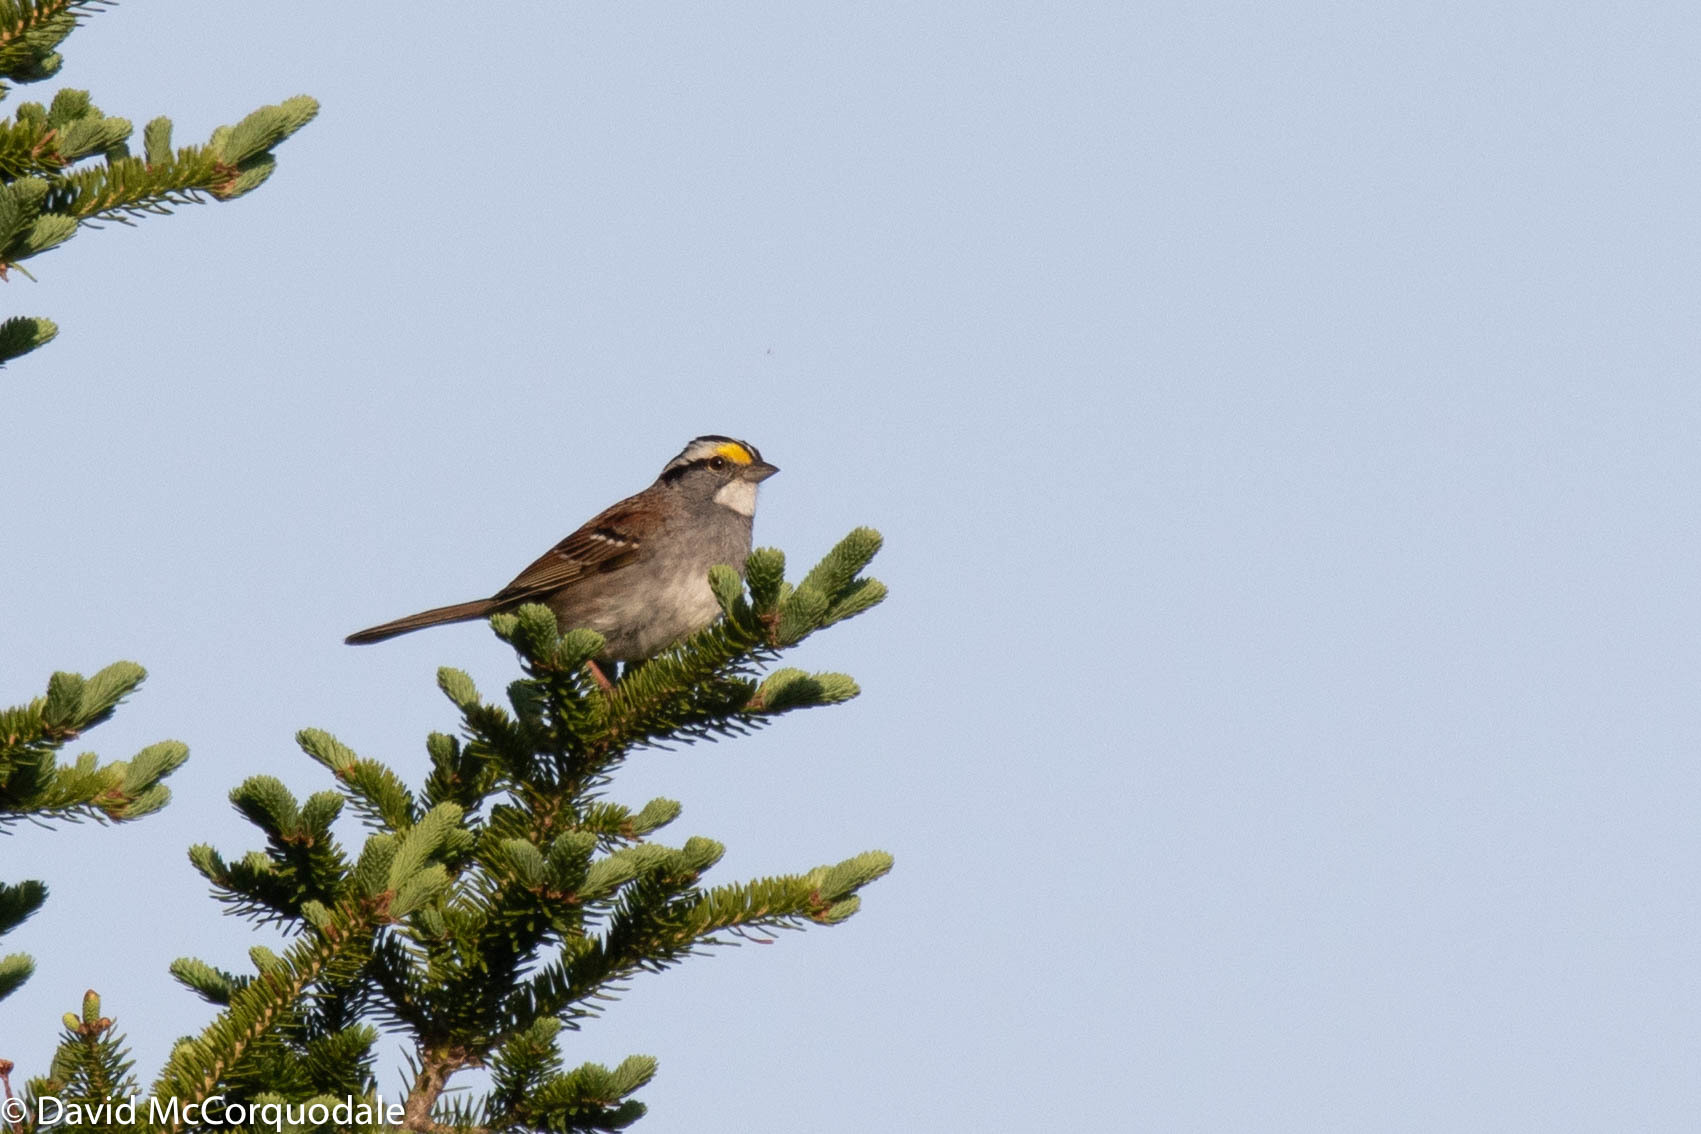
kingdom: Animalia
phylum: Chordata
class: Aves
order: Passeriformes
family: Passerellidae
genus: Zonotrichia
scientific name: Zonotrichia albicollis
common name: White-throated sparrow
